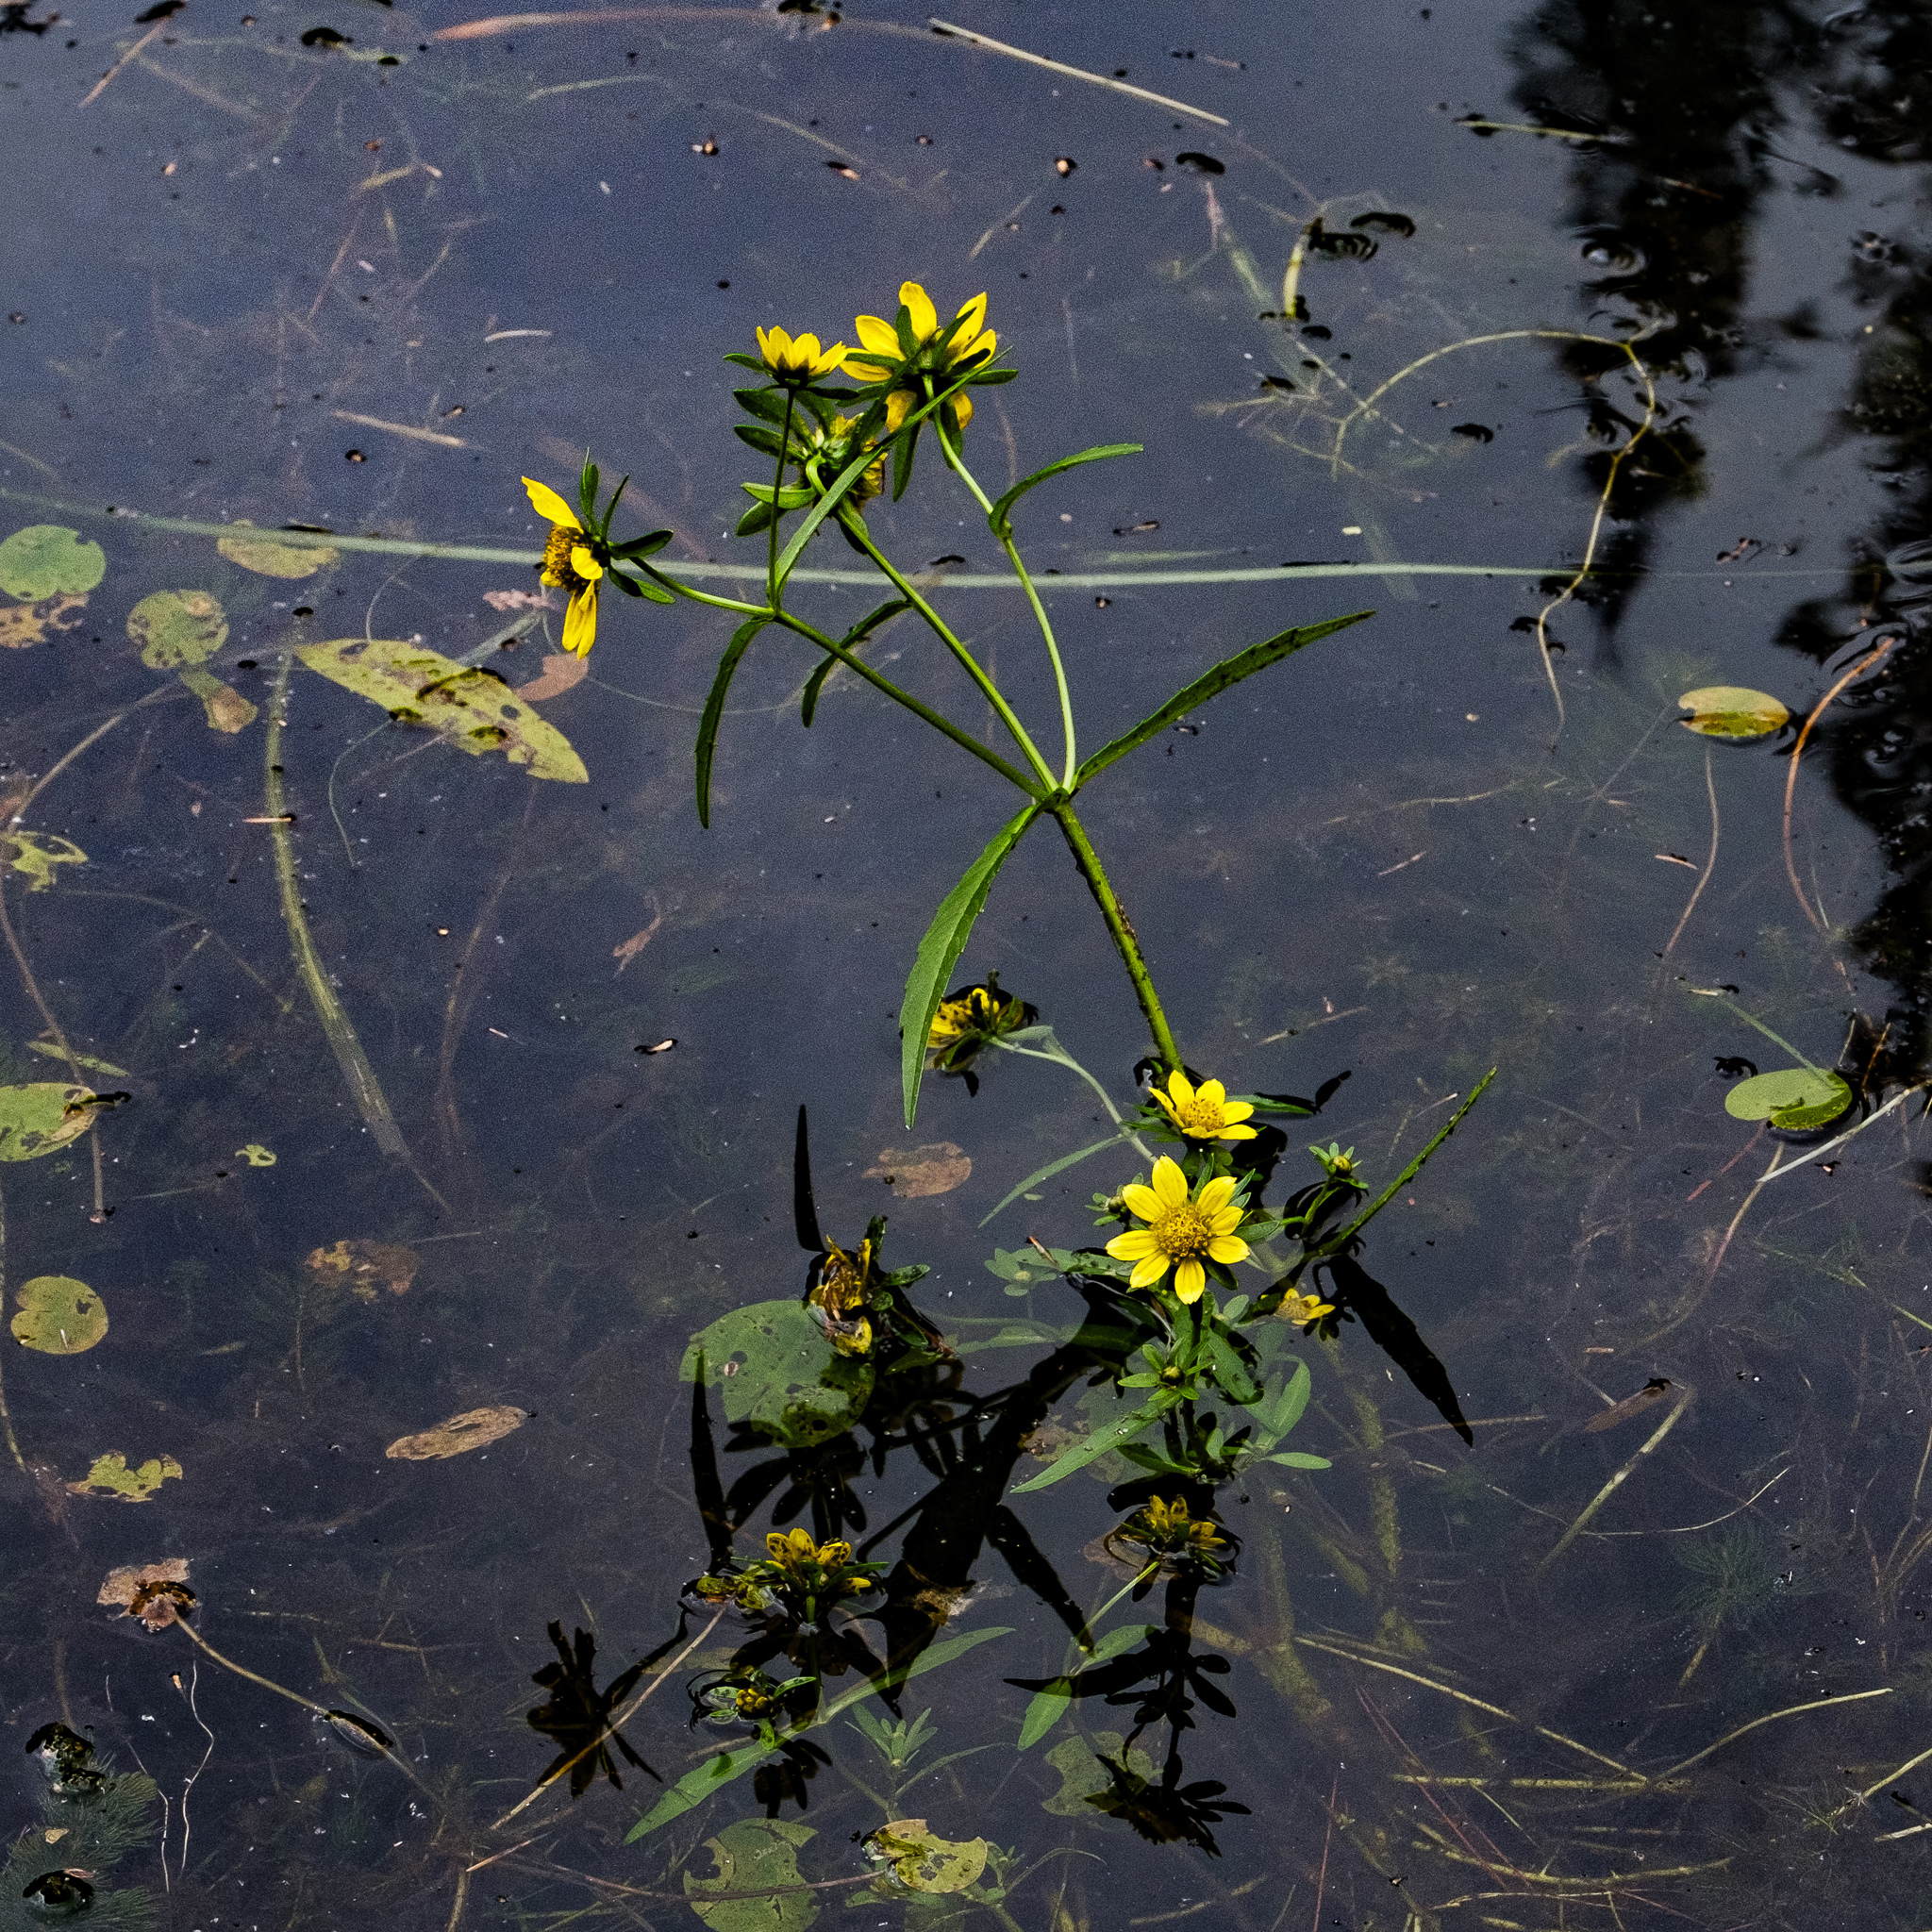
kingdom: Plantae
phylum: Tracheophyta
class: Magnoliopsida
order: Asterales
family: Asteraceae
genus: Bidens
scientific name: Bidens cernua
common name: Nodding bur-marigold
